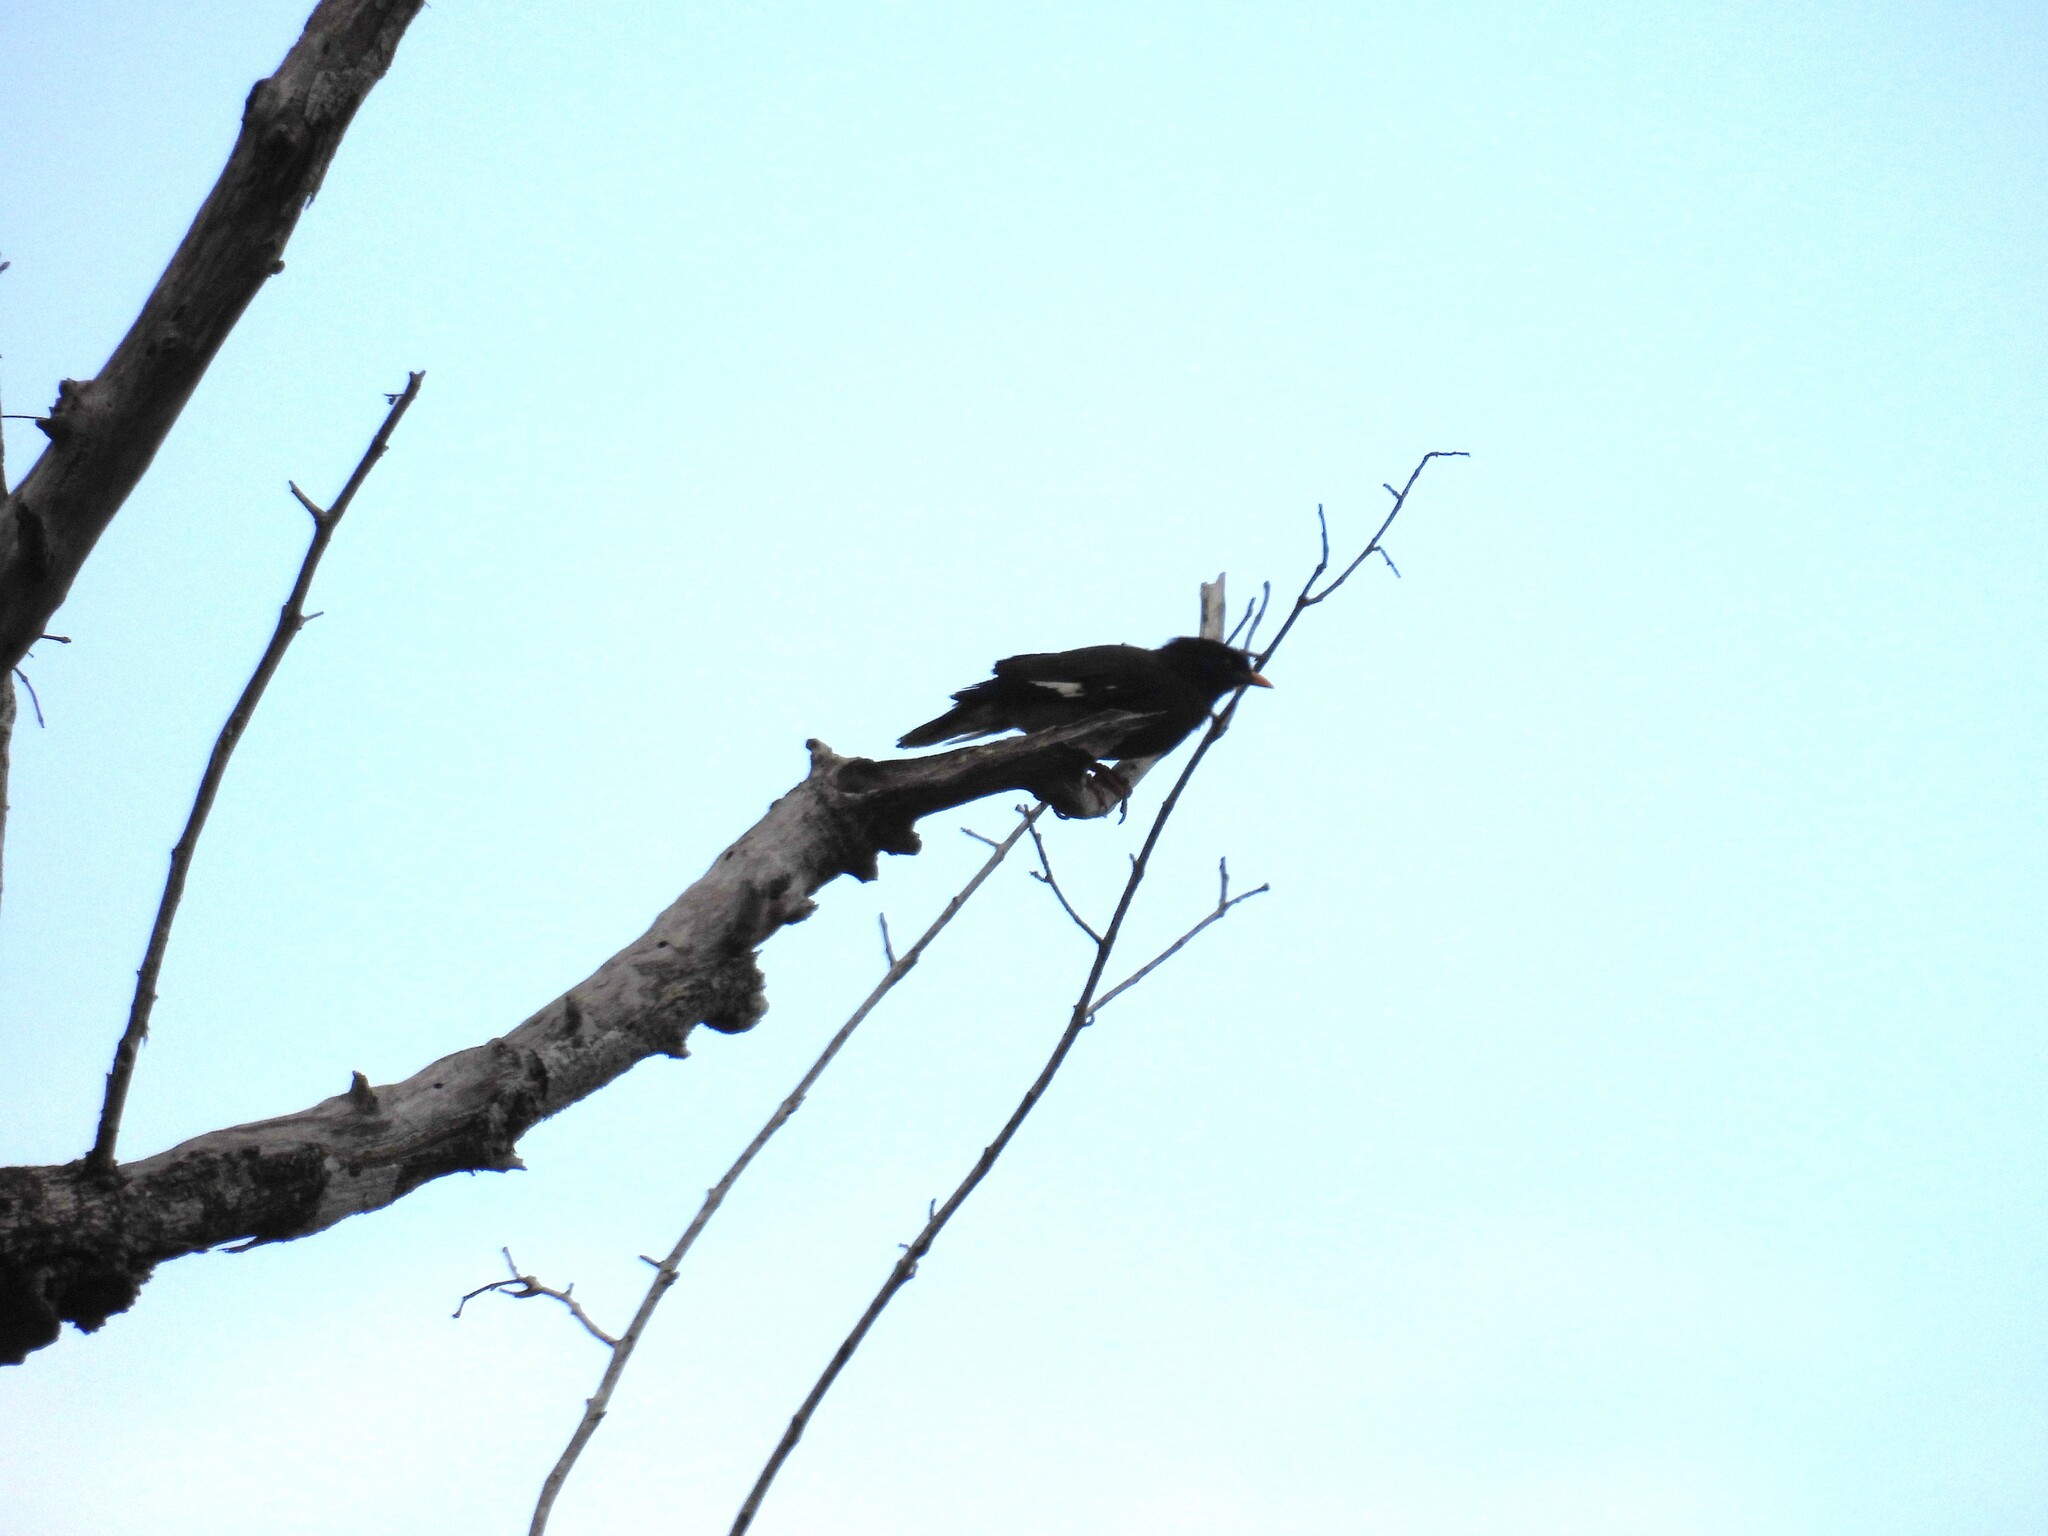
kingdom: Animalia
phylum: Chordata
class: Aves
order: Passeriformes
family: Sturnidae
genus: Acridotheres
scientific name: Acridotheres fuscus
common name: Jungle myna
